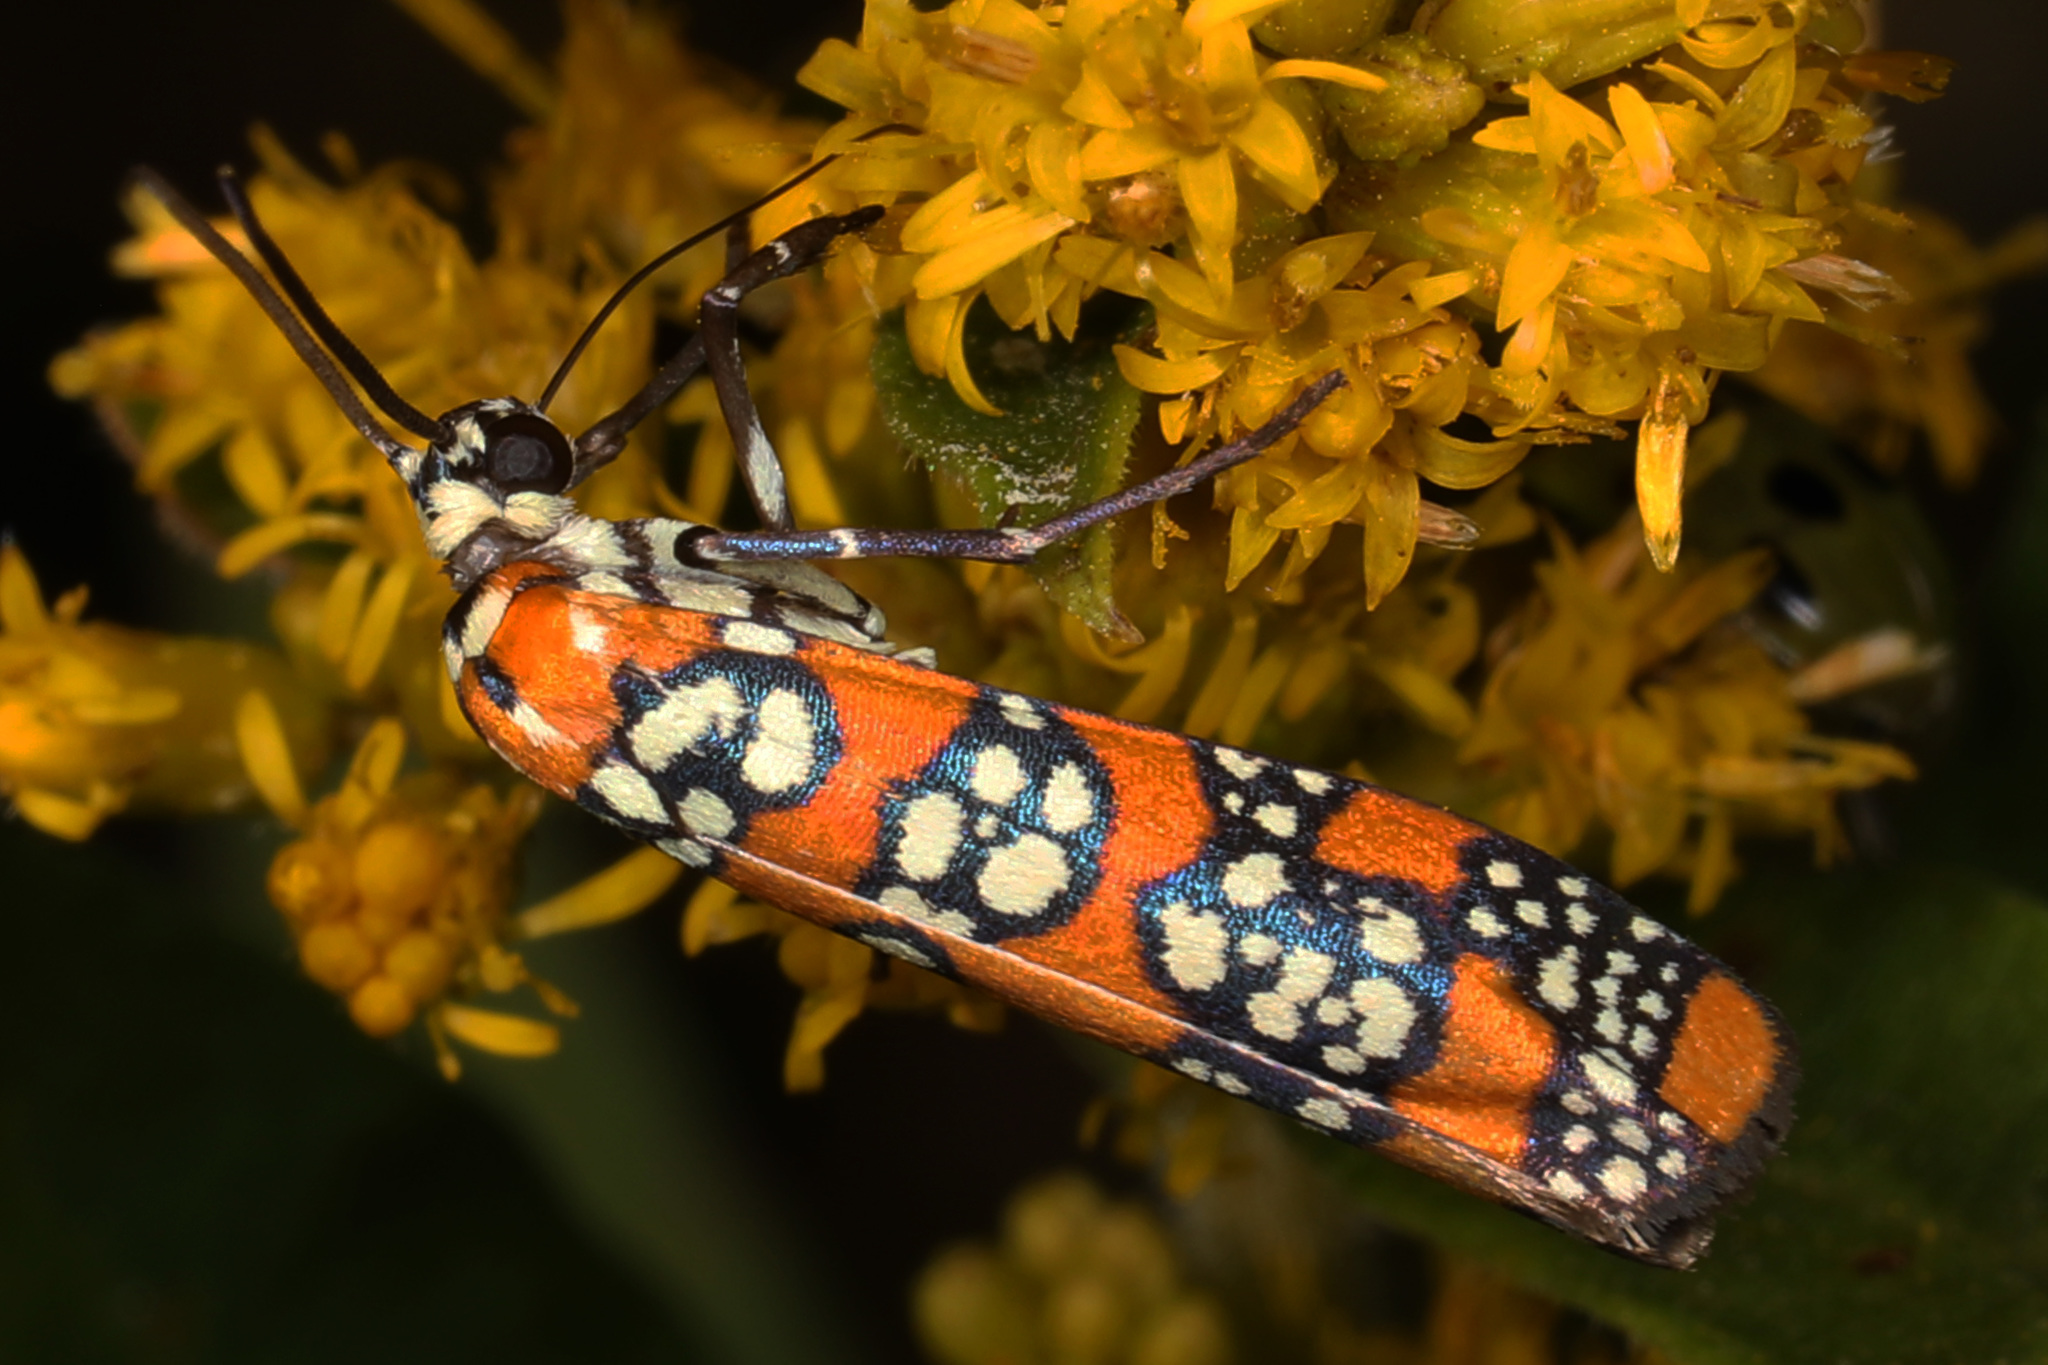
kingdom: Animalia
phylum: Arthropoda
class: Insecta
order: Lepidoptera
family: Attevidae
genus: Atteva
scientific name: Atteva punctella
